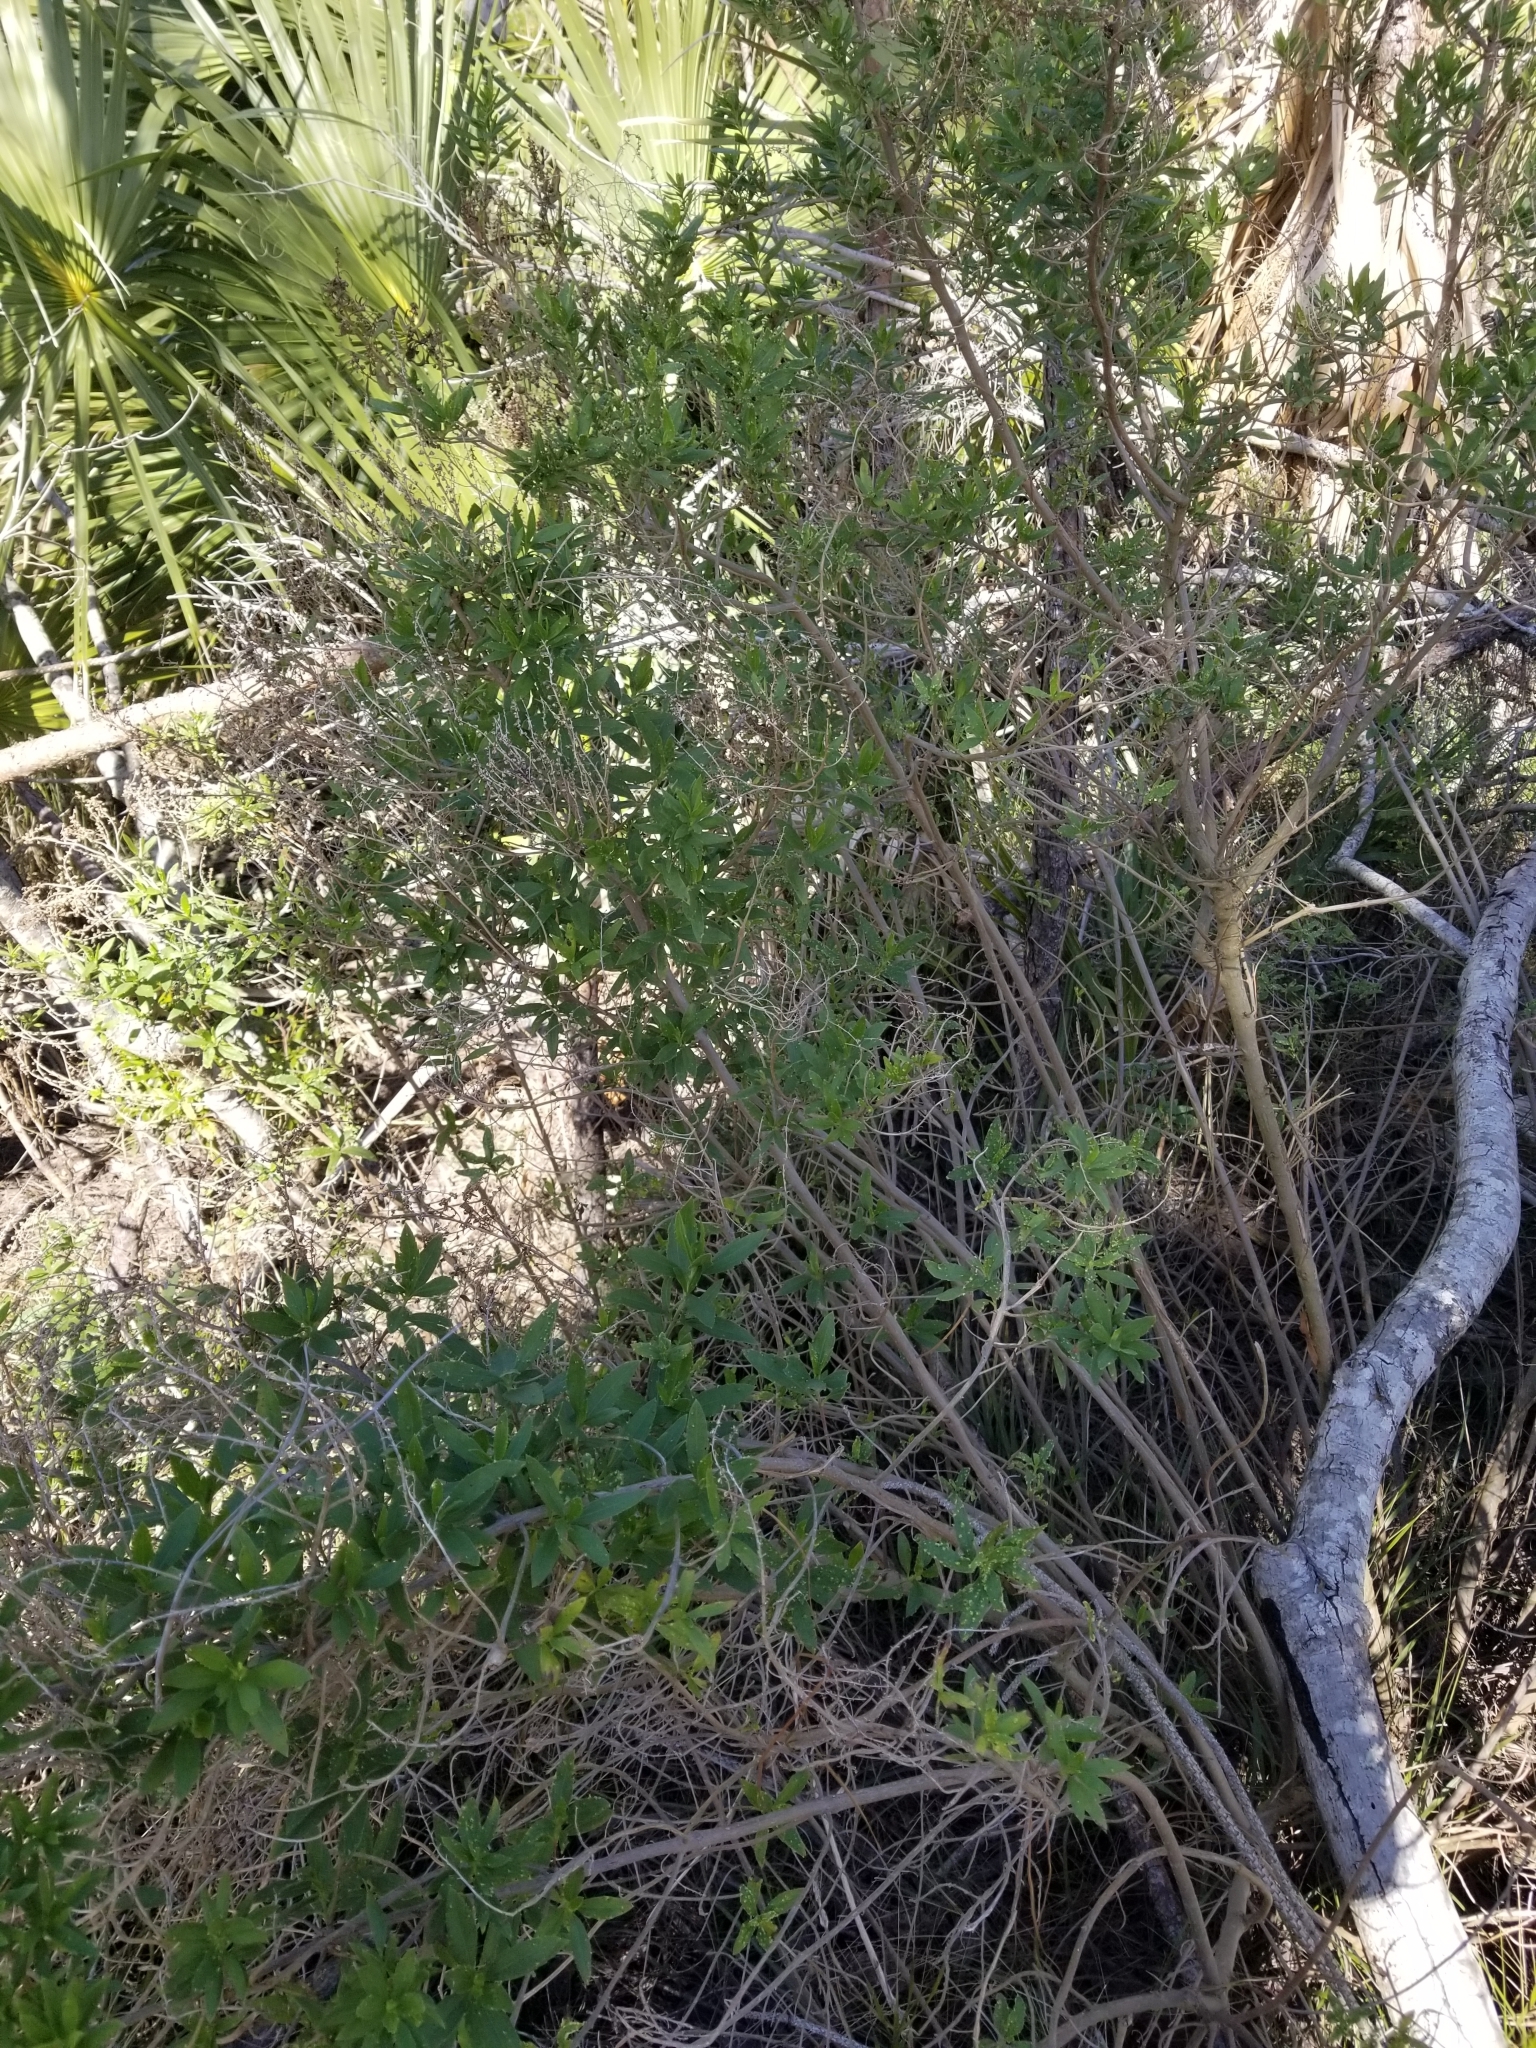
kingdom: Plantae
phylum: Tracheophyta
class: Magnoliopsida
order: Asterales
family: Asteraceae
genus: Iva
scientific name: Iva frutescens
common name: Big-leaved marsh-elder
